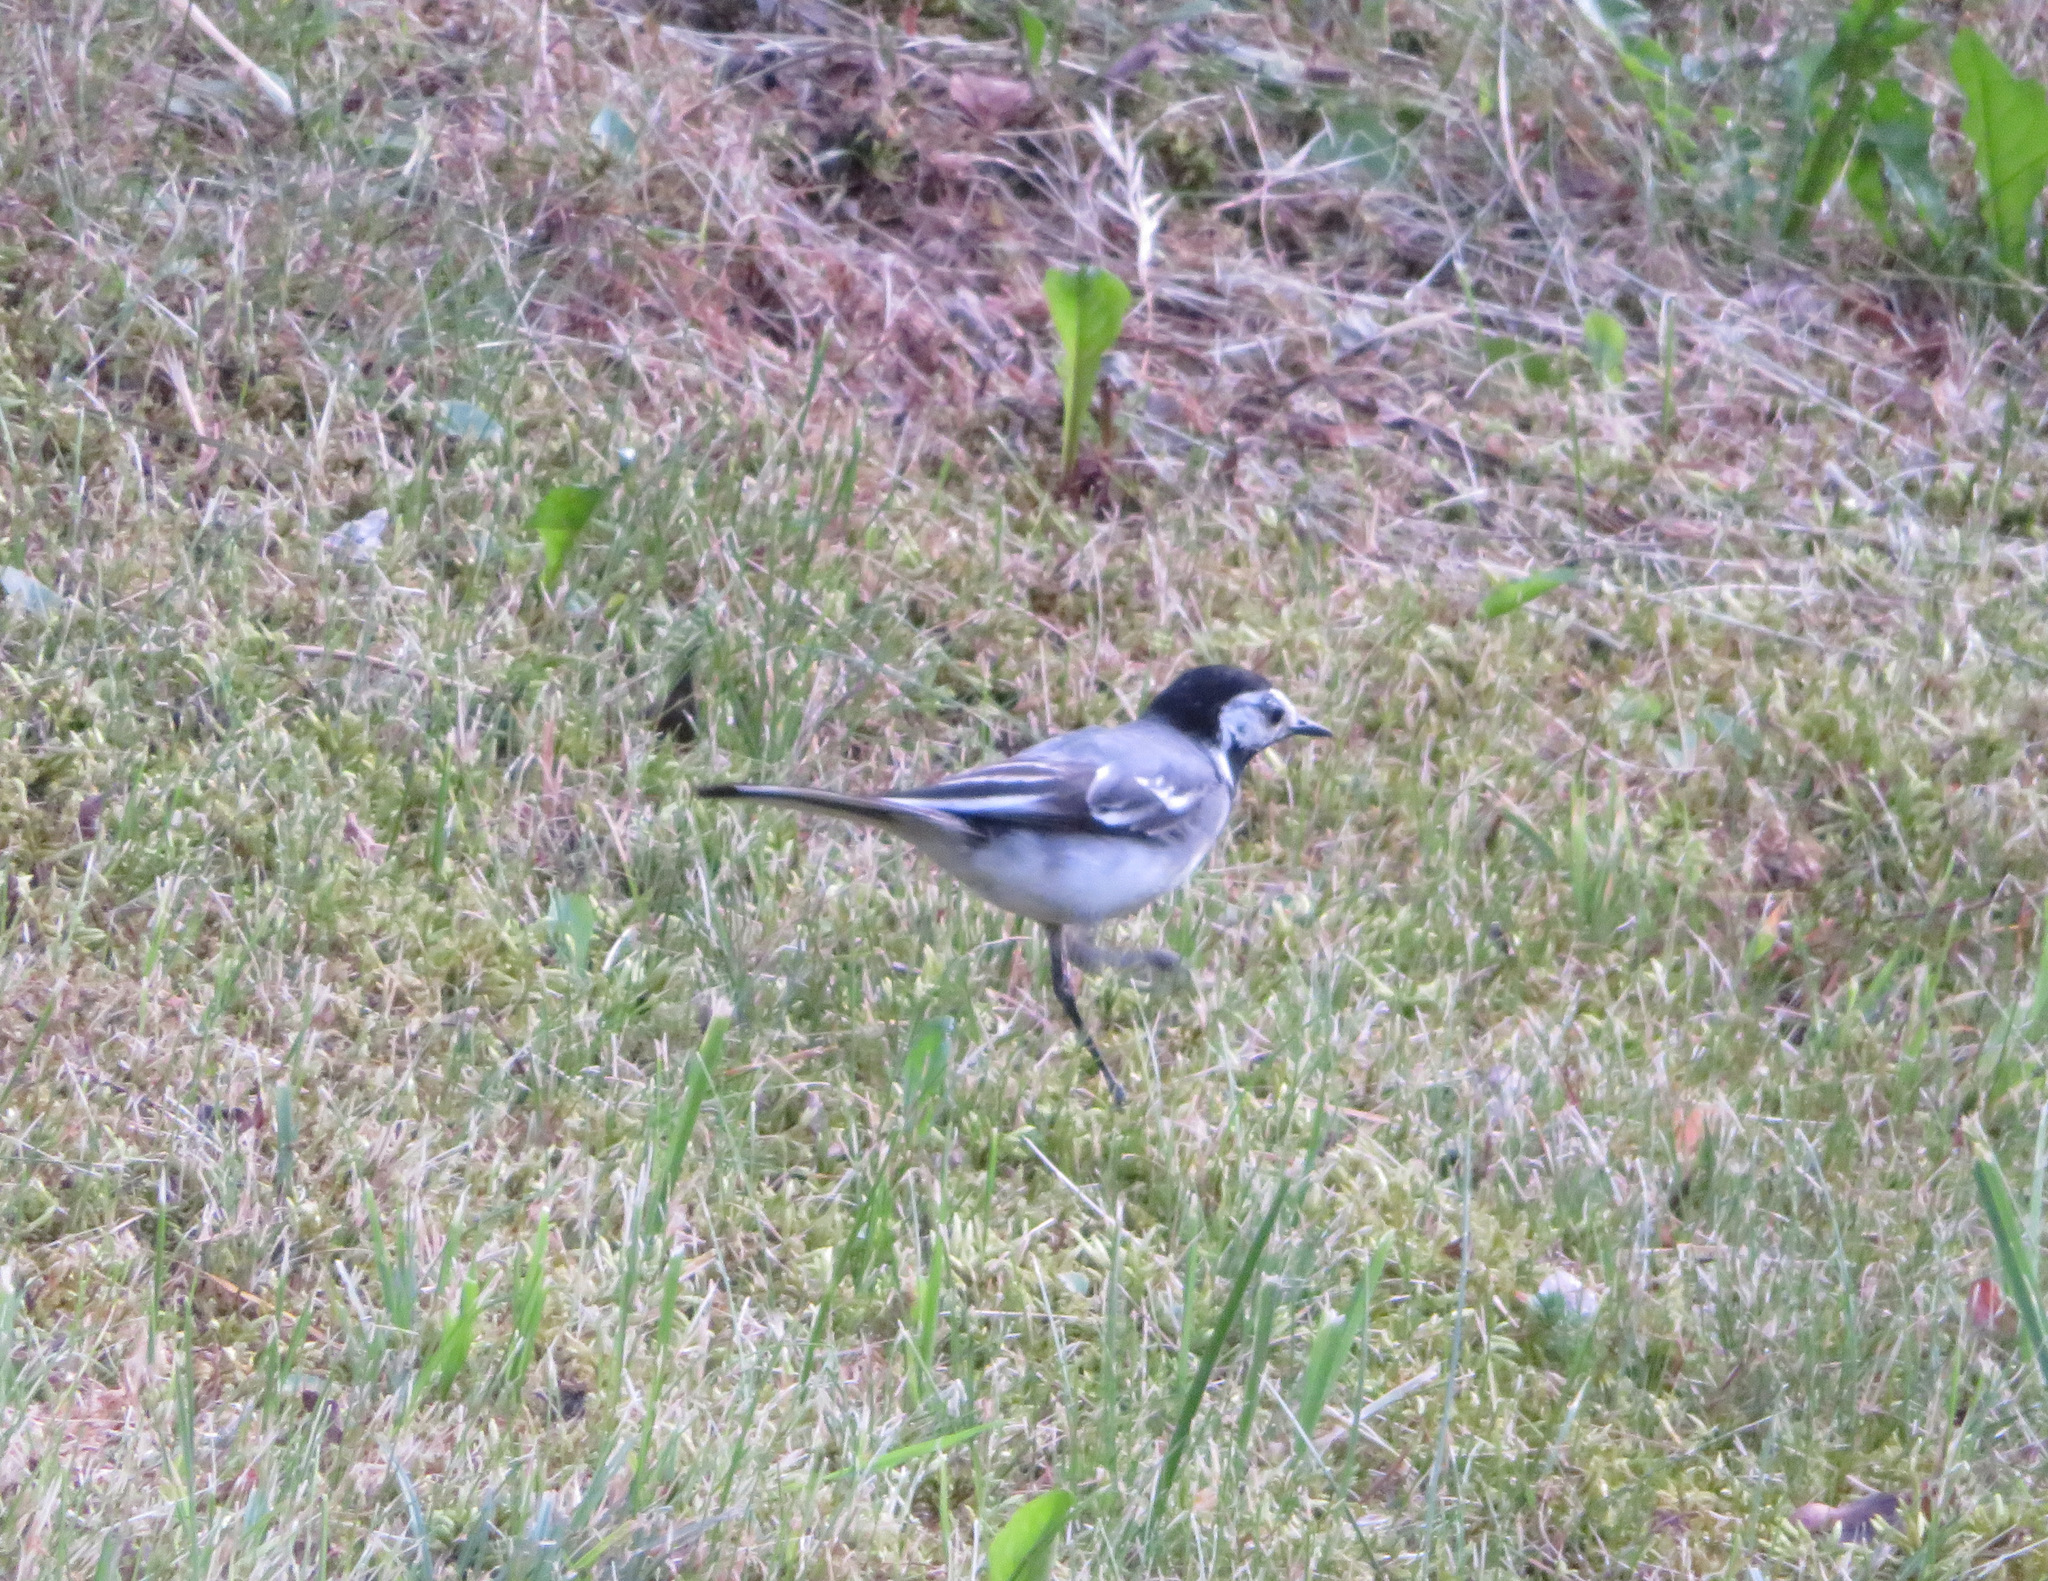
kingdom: Animalia
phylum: Chordata
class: Aves
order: Passeriformes
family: Motacillidae
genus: Motacilla
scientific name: Motacilla alba
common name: White wagtail
